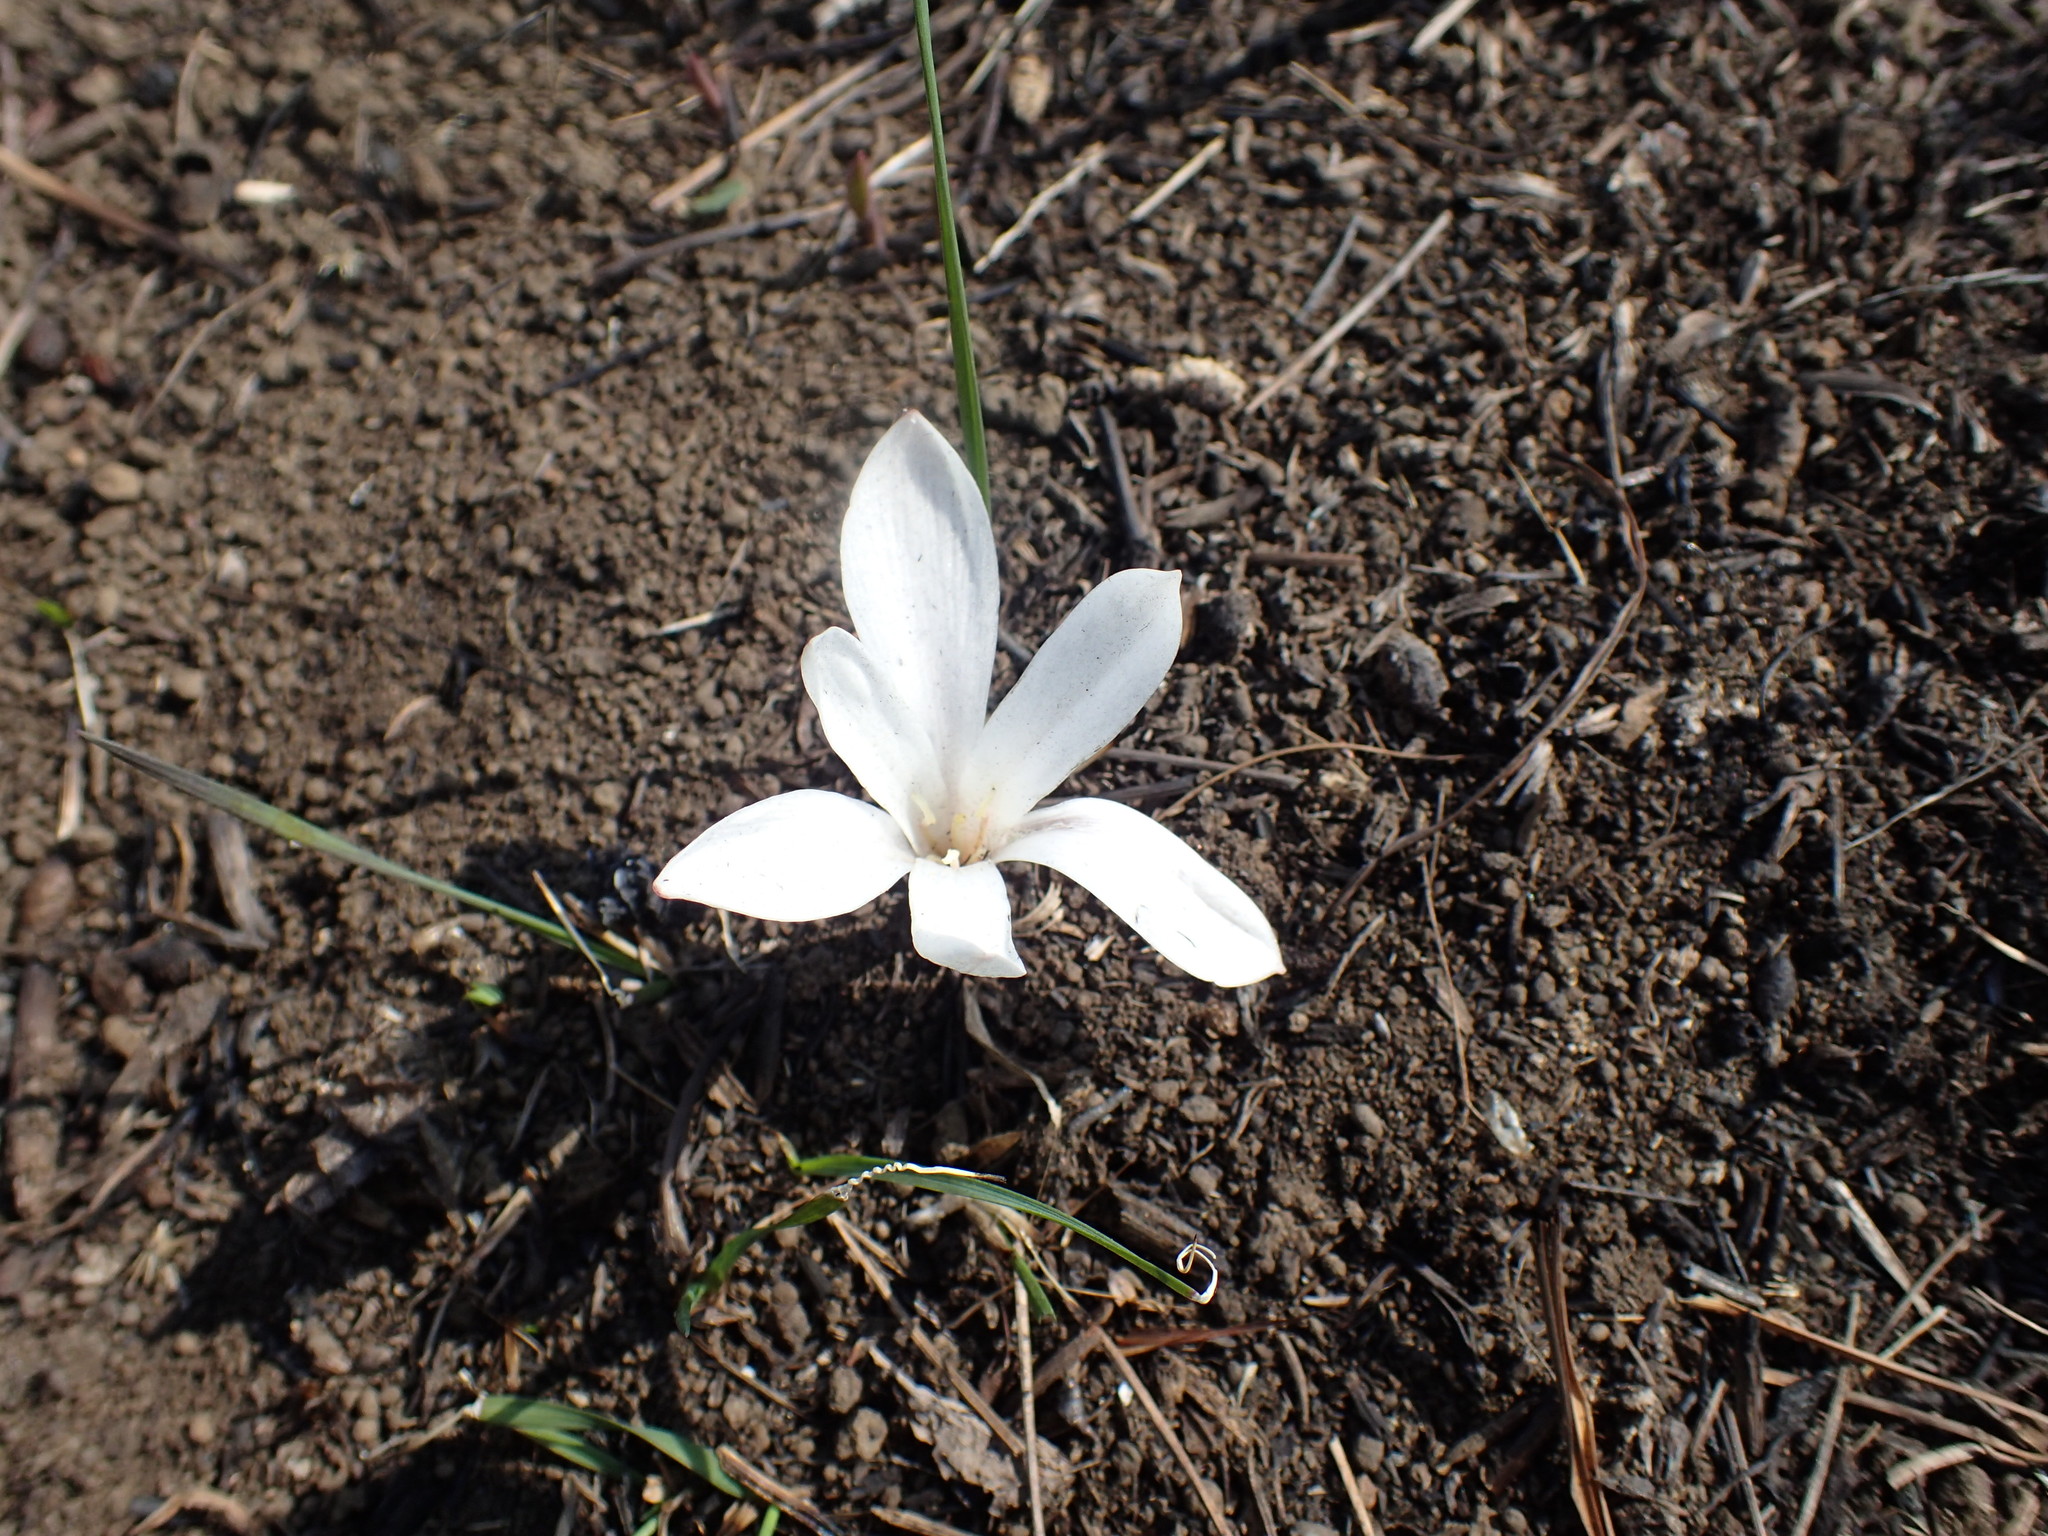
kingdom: Plantae
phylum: Tracheophyta
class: Liliopsida
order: Asparagales
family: Amaryllidaceae
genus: Apodolirion
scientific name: Apodolirion buchananii
